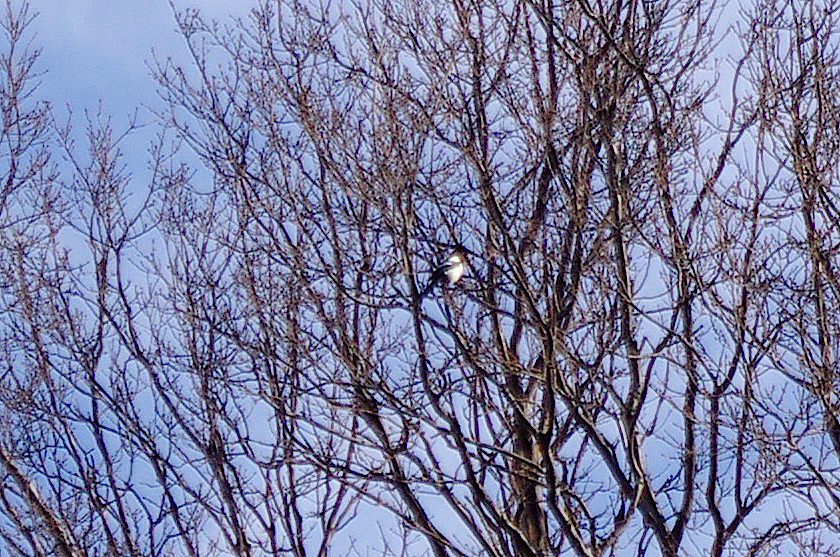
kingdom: Animalia
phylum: Chordata
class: Aves
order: Passeriformes
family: Corvidae
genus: Pica
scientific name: Pica pica
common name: Eurasian magpie
